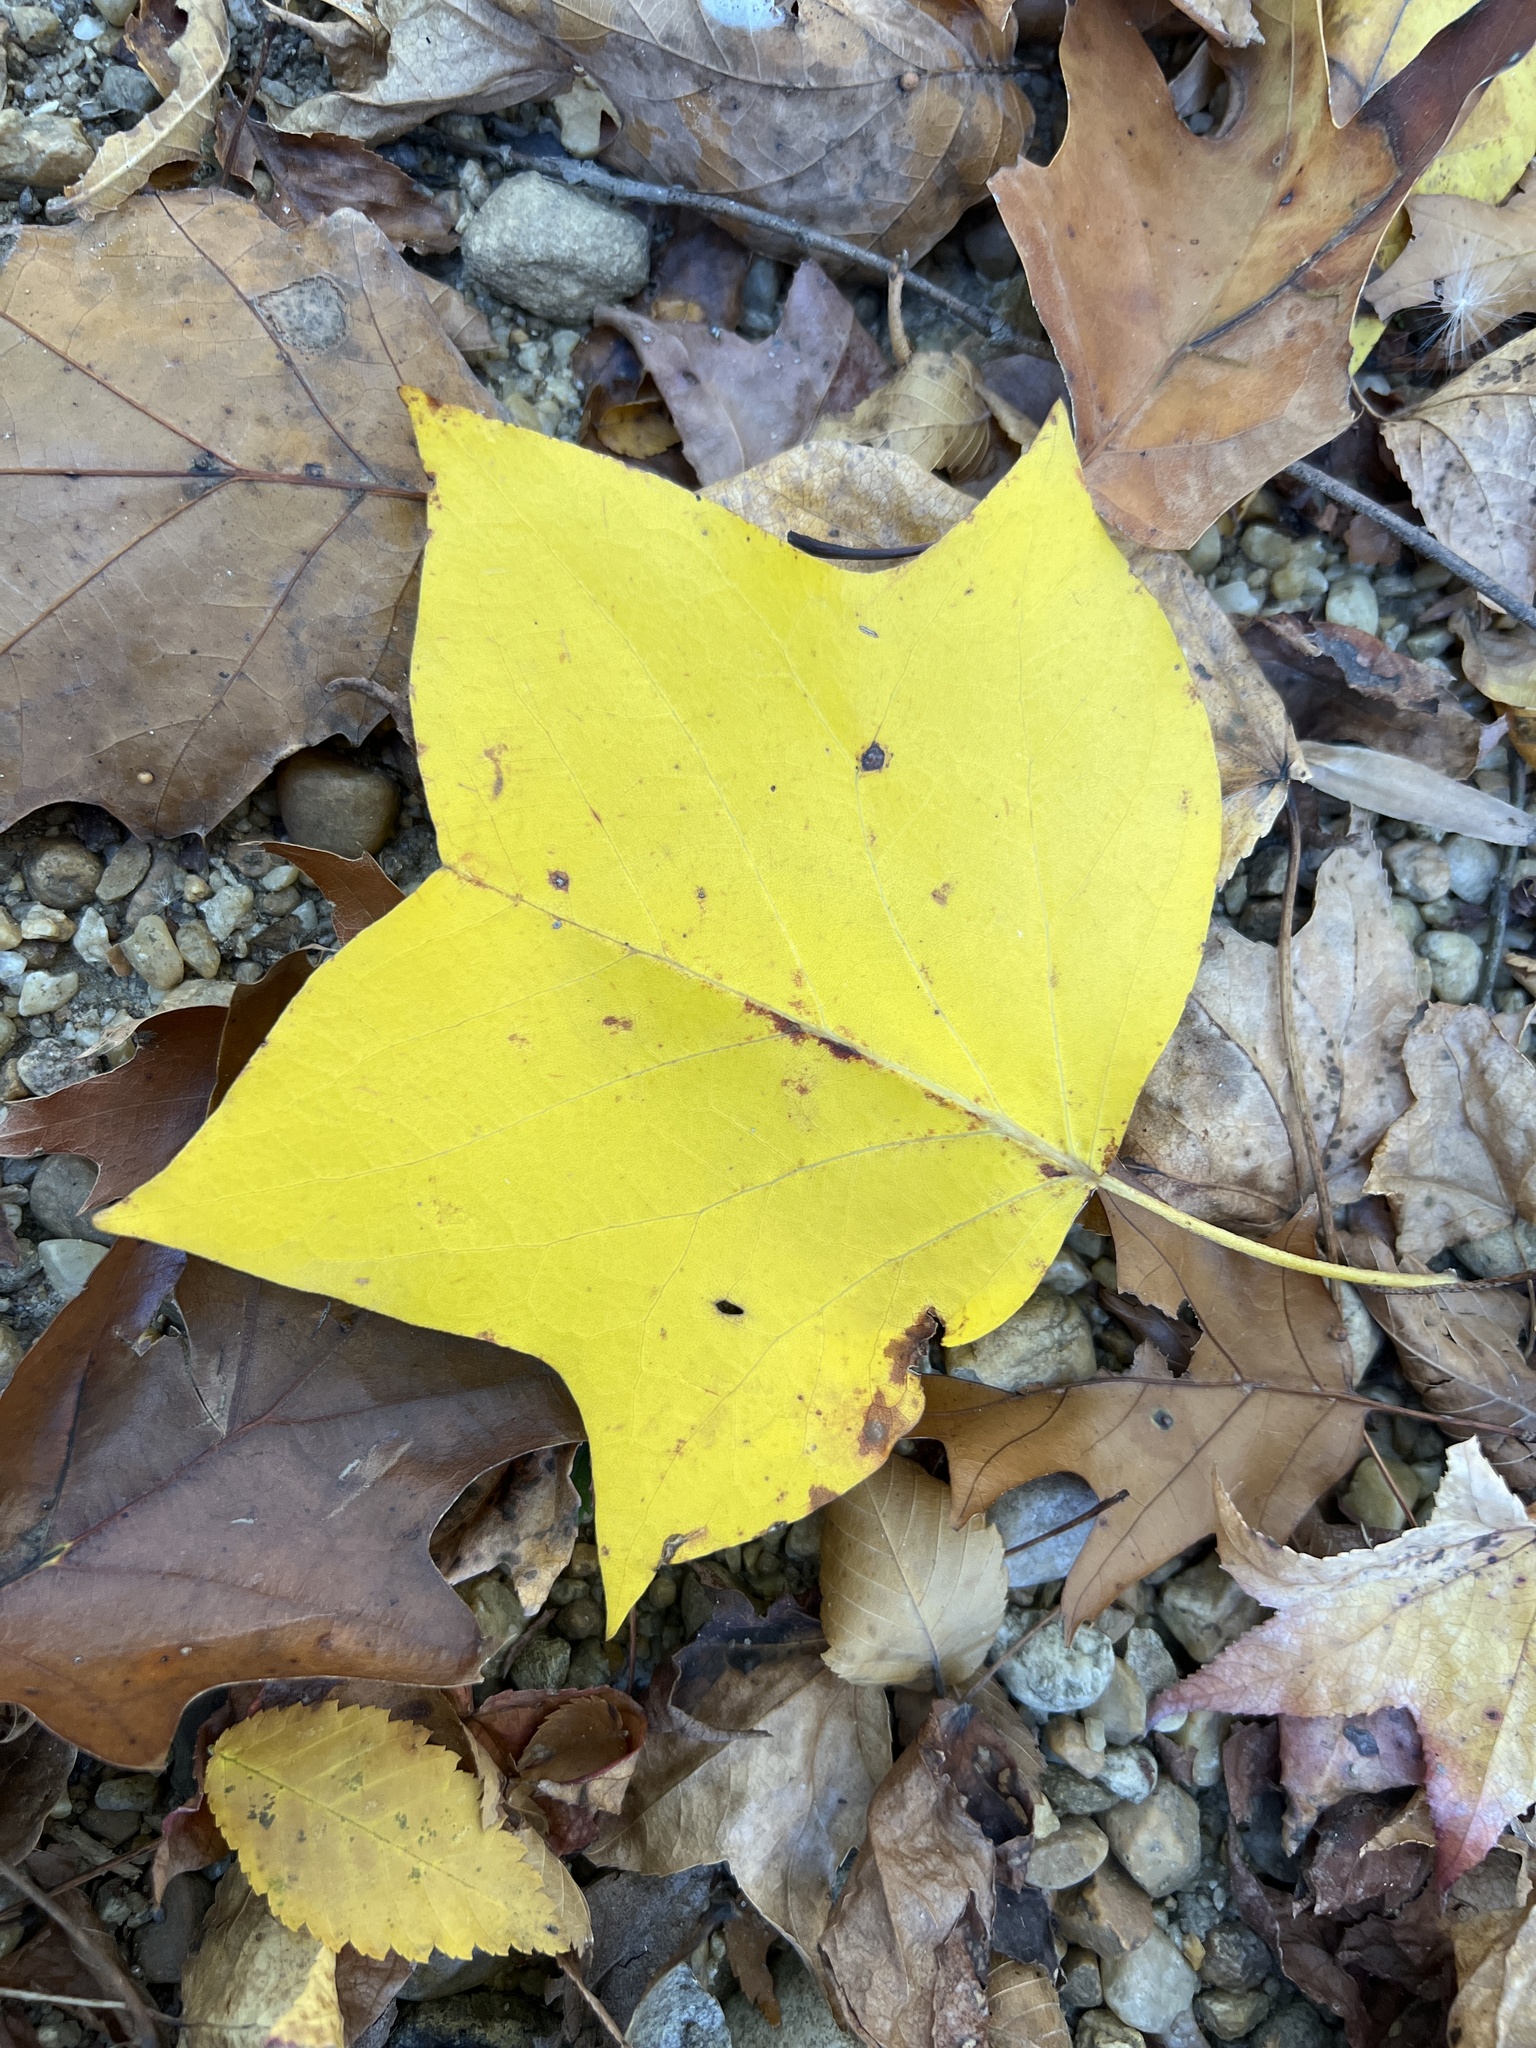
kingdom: Plantae
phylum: Tracheophyta
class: Magnoliopsida
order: Magnoliales
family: Magnoliaceae
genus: Liriodendron
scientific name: Liriodendron tulipifera
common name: Tulip tree
